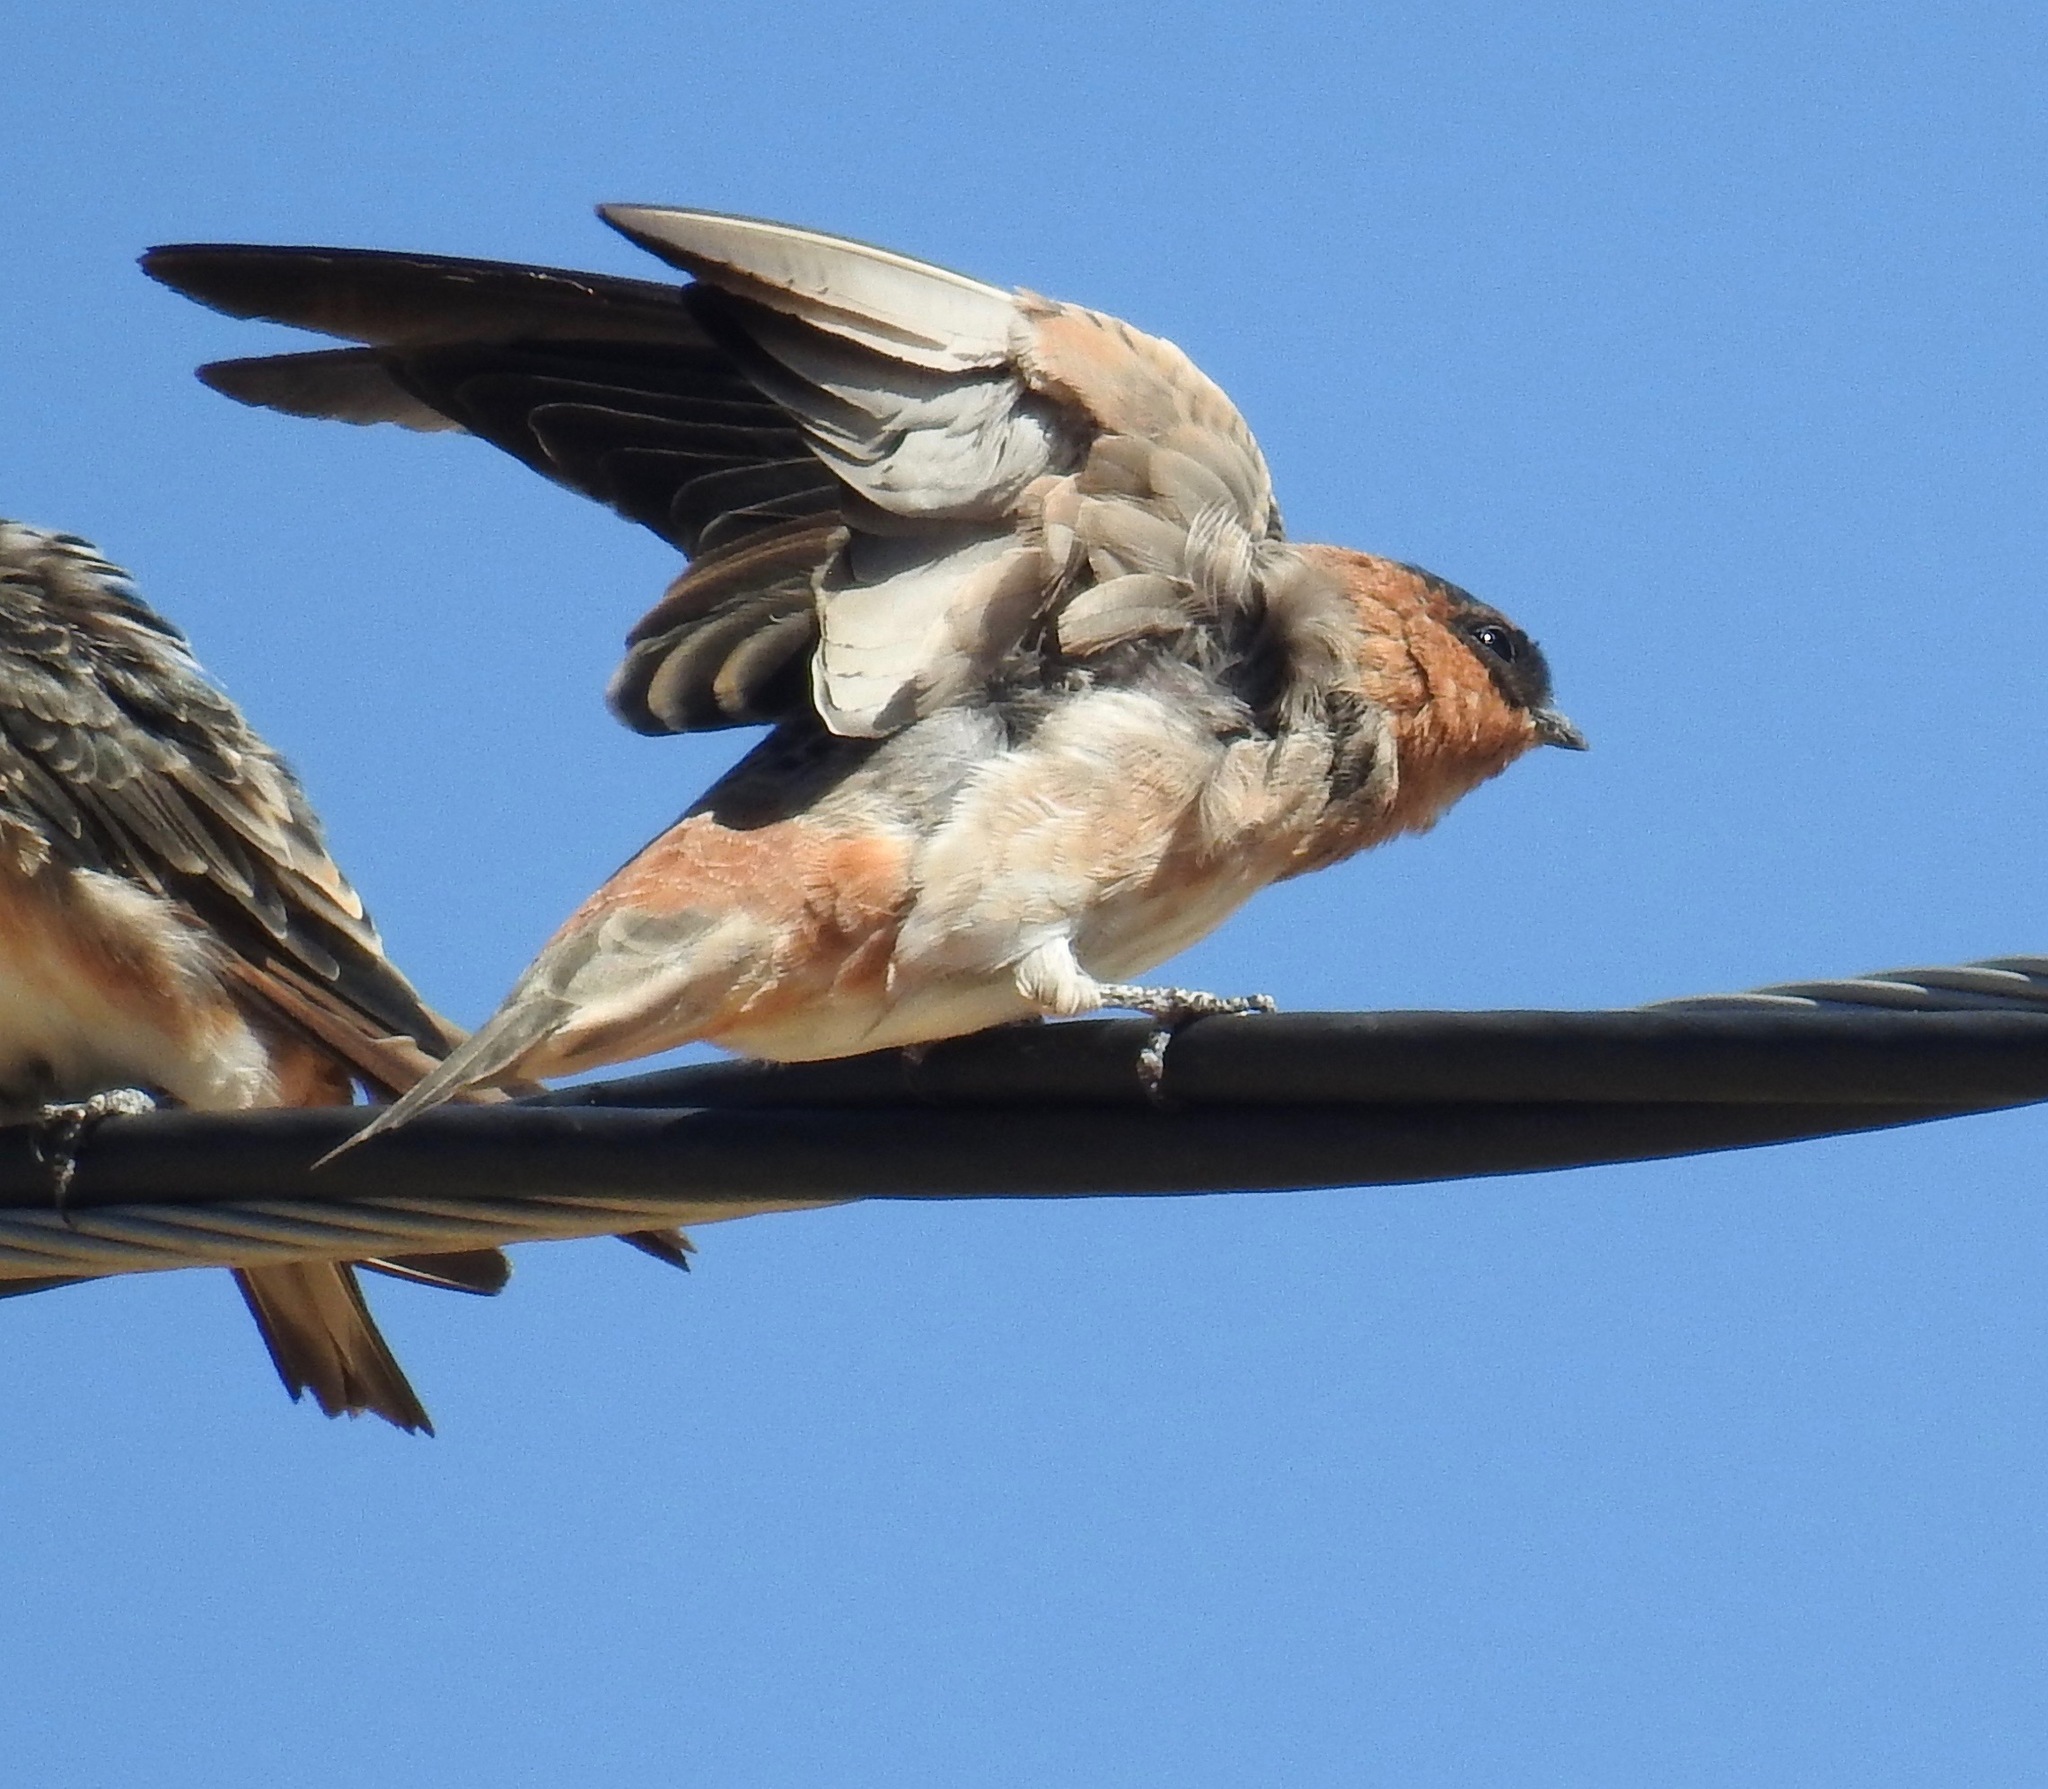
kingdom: Animalia
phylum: Chordata
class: Aves
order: Passeriformes
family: Hirundinidae
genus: Petrochelidon
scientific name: Petrochelidon fulva
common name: Cave swallow
